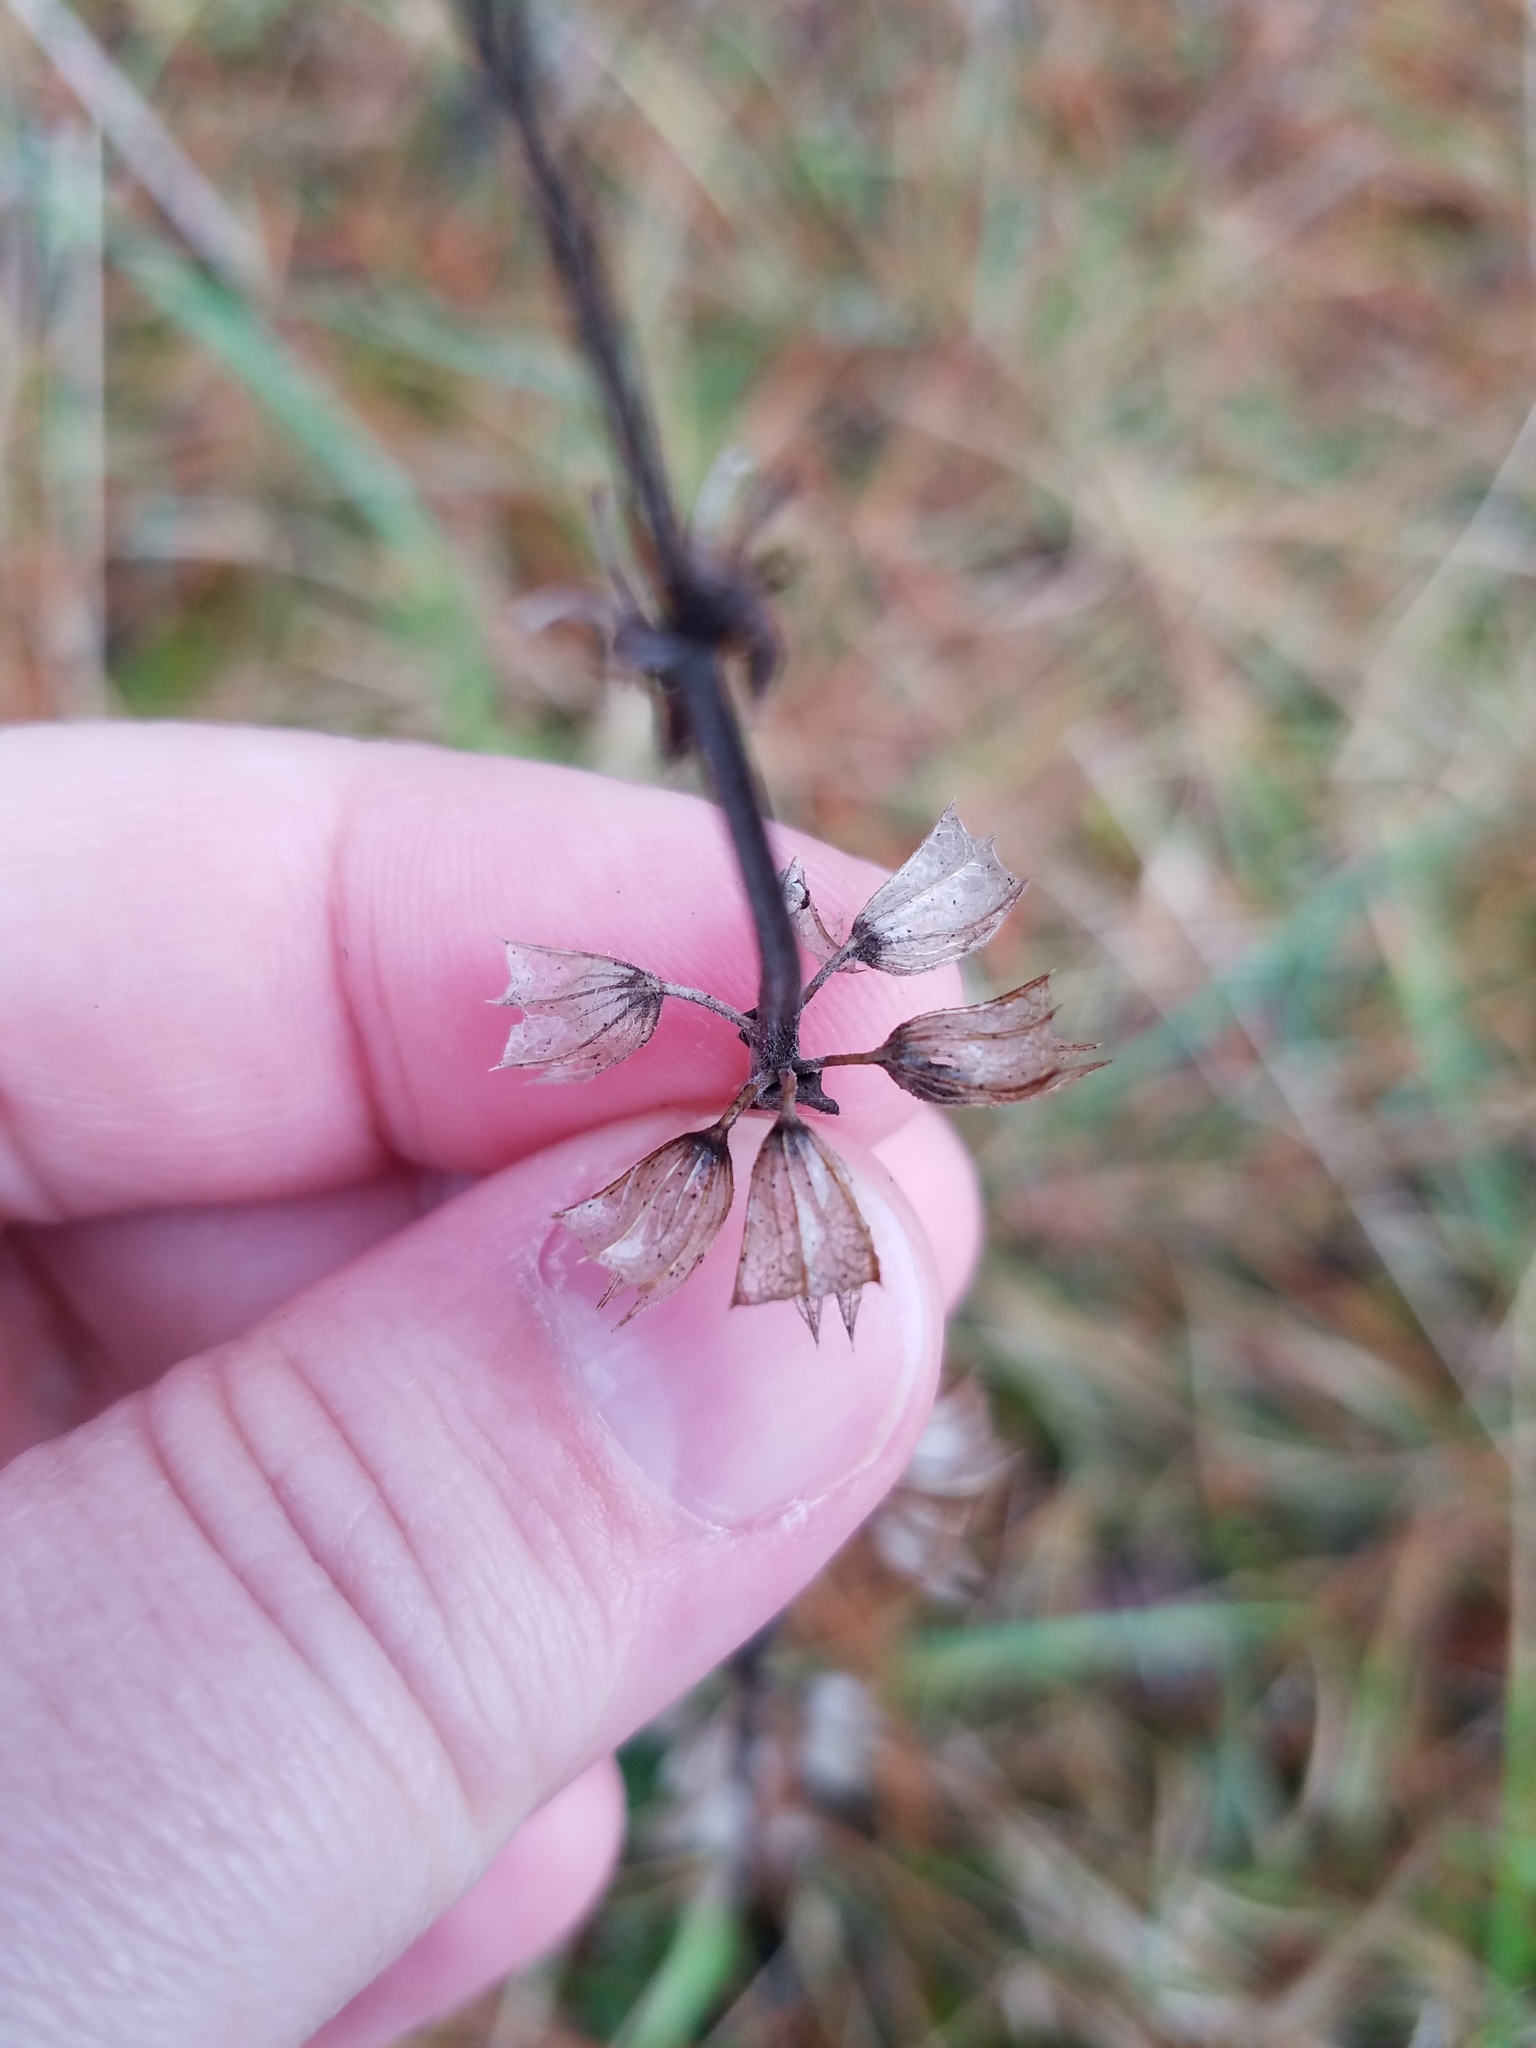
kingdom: Plantae
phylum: Tracheophyta
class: Magnoliopsida
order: Lamiales
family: Lamiaceae
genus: Salvia
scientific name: Salvia lyrata
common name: Cancerweed
